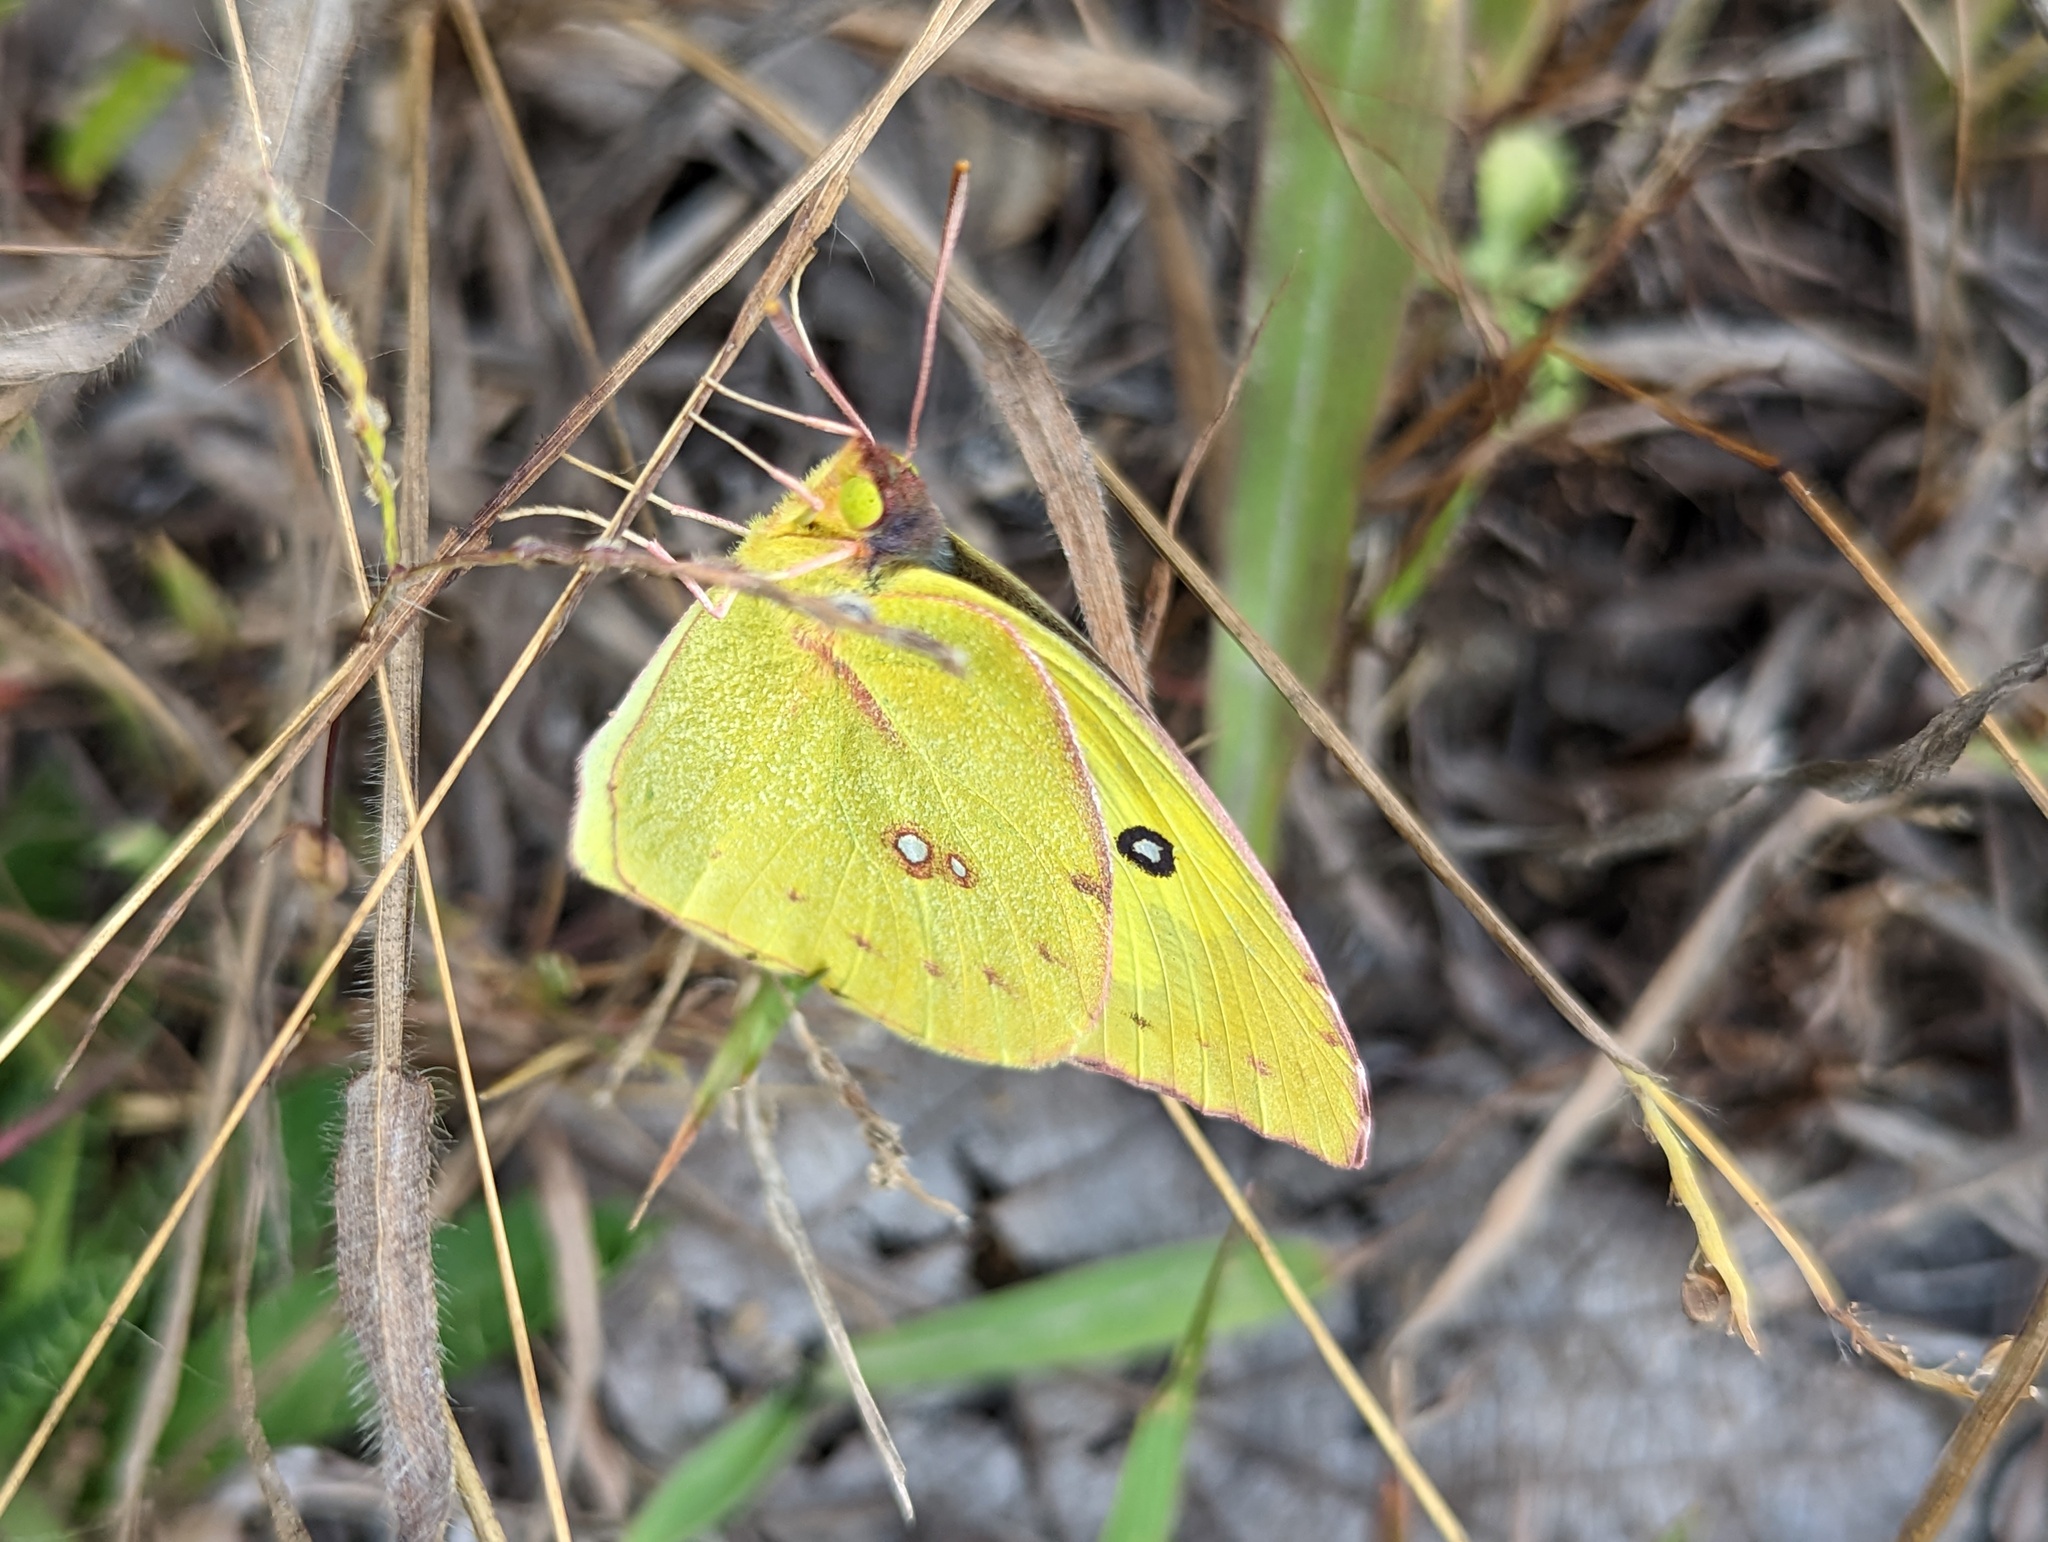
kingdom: Animalia
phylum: Arthropoda
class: Insecta
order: Lepidoptera
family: Pieridae
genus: Zerene
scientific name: Zerene cesonia
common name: Southern dogface
